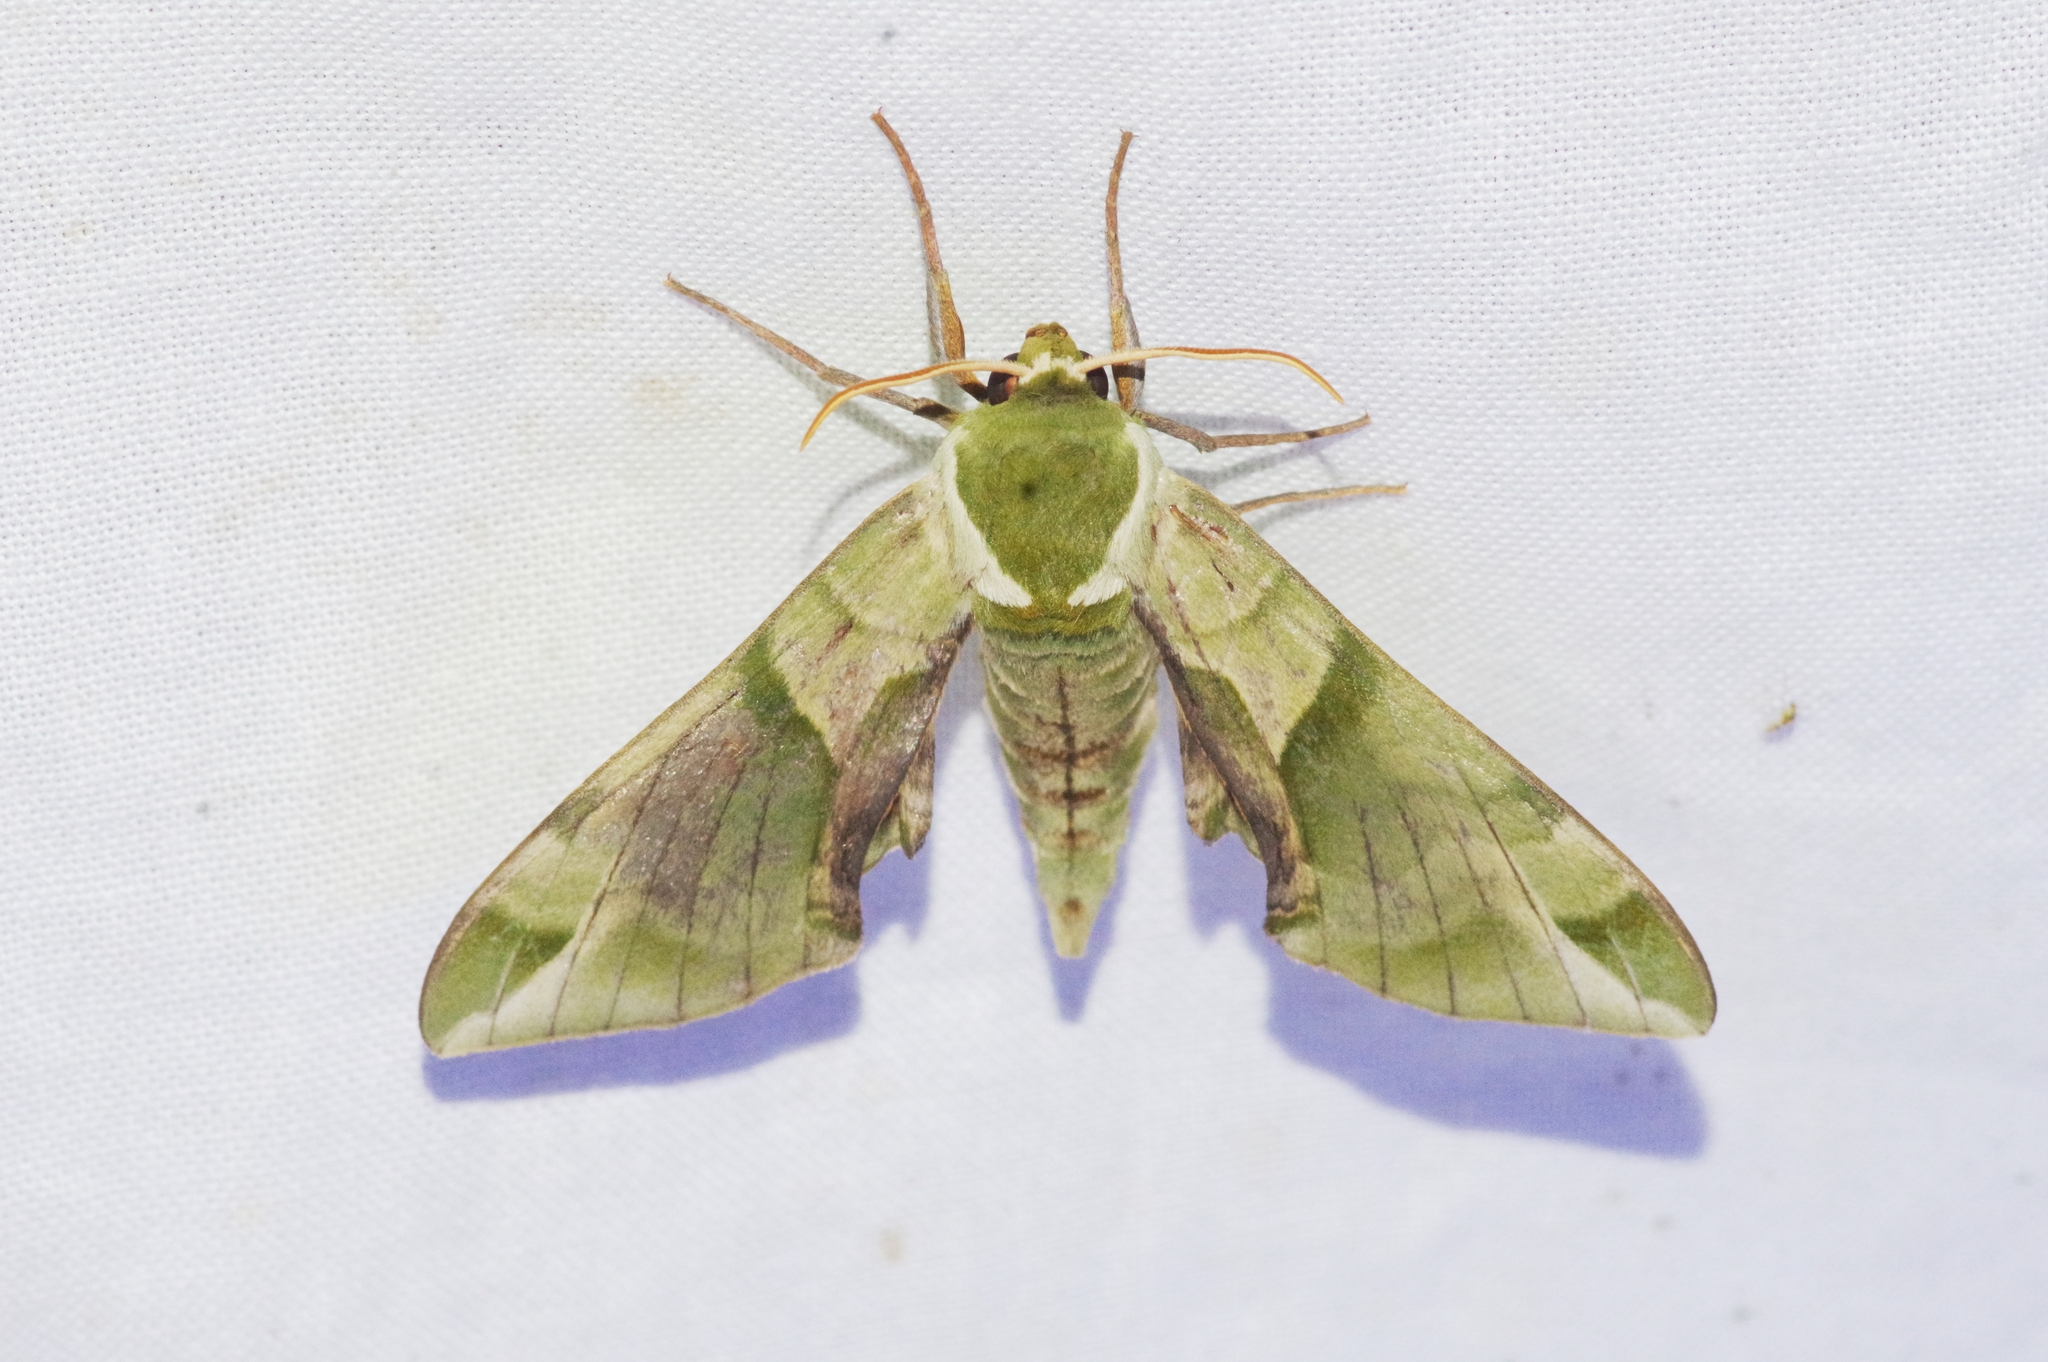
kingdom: Animalia
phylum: Arthropoda
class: Insecta
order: Lepidoptera
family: Sphingidae
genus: Callambulyx
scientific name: Callambulyx tatarinovii
